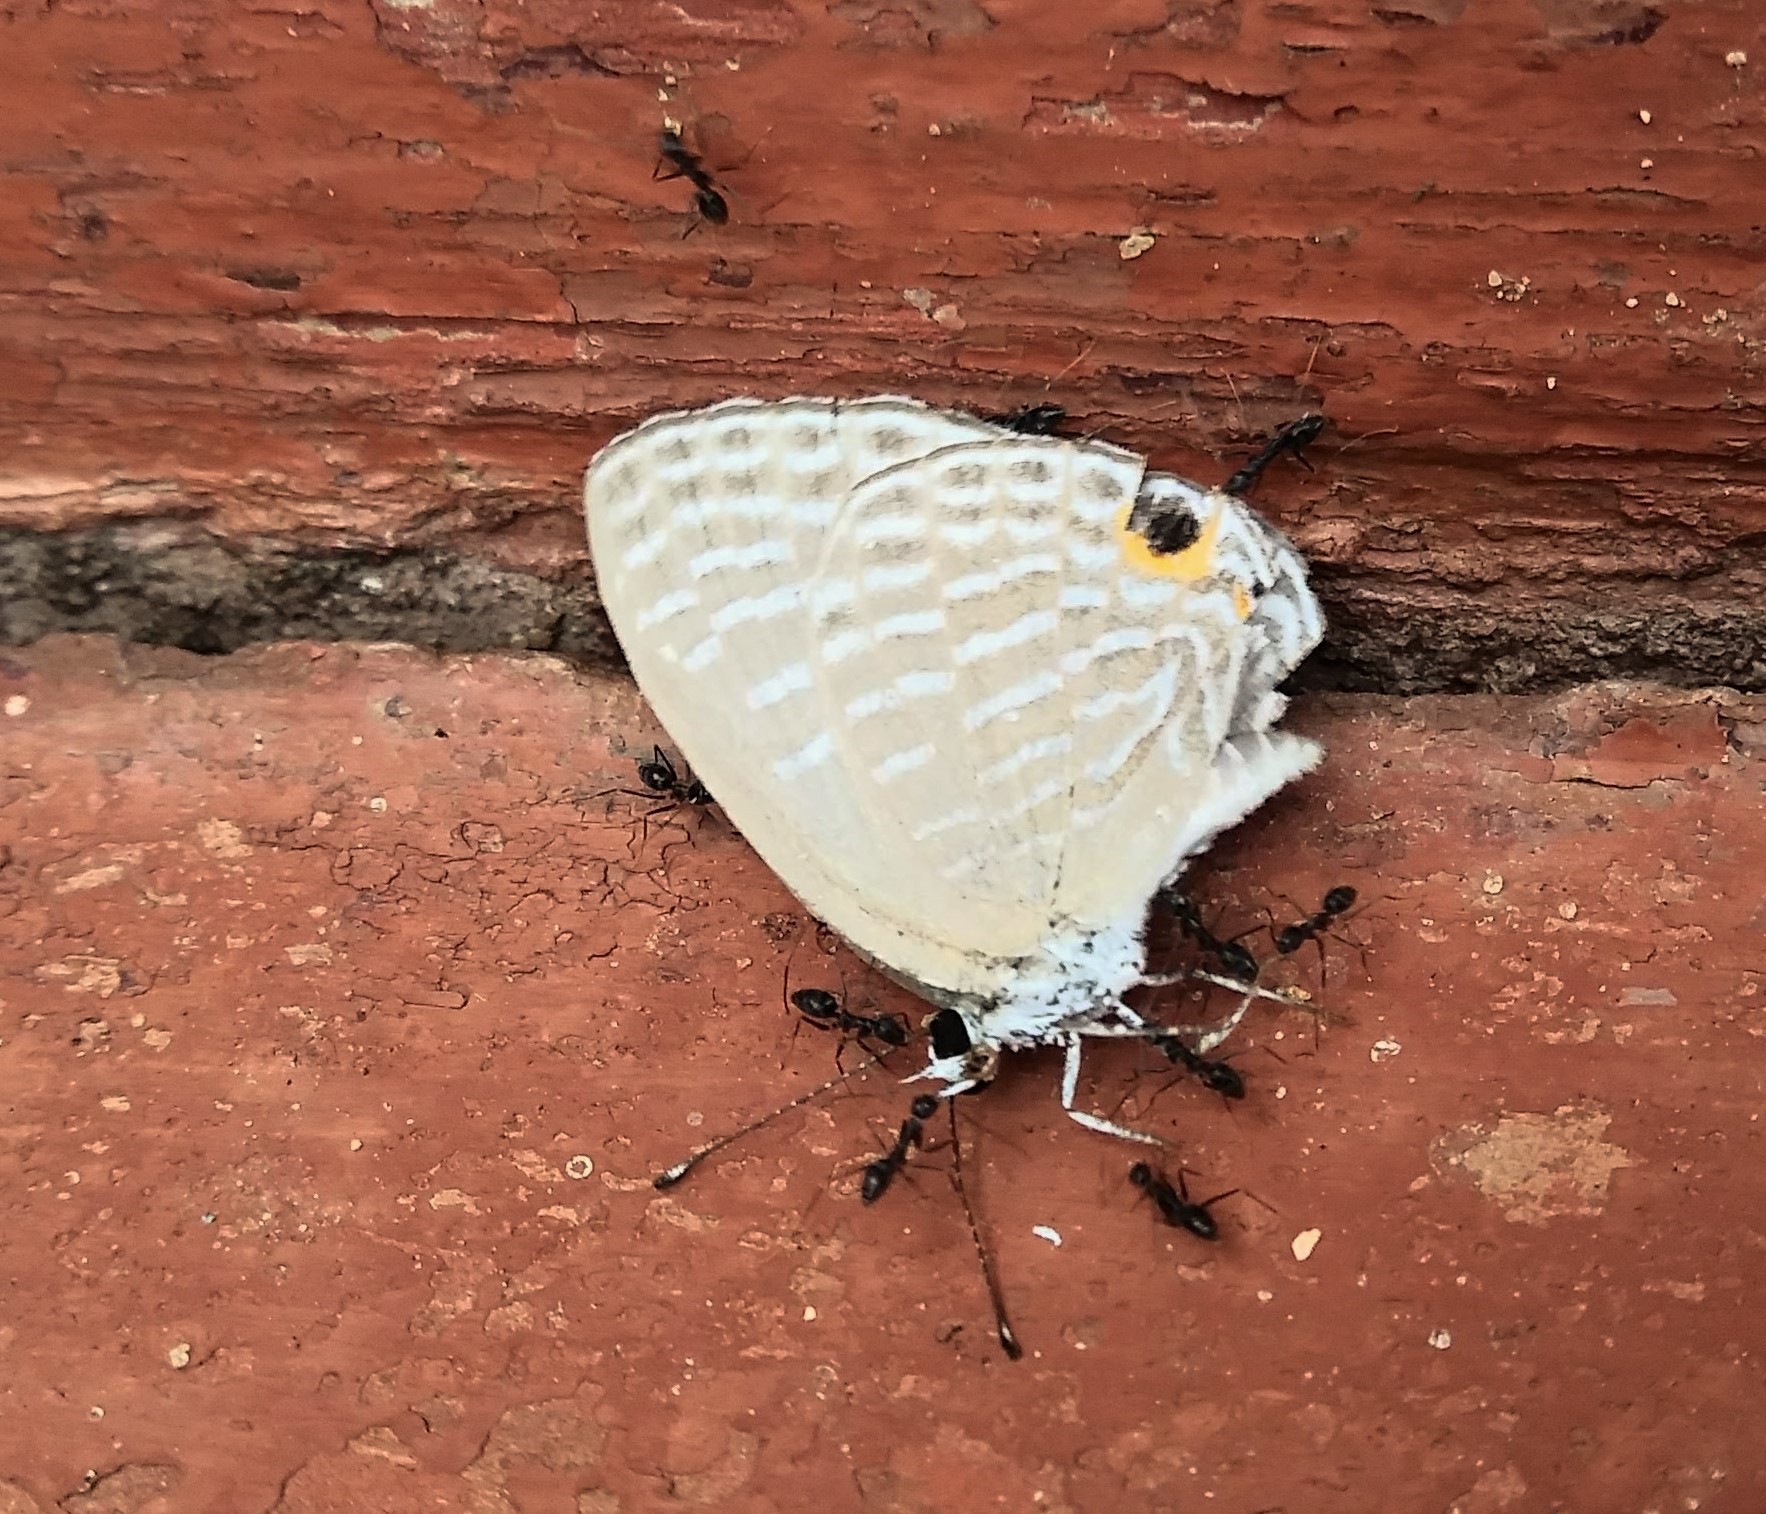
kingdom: Animalia
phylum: Arthropoda
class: Insecta
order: Lepidoptera
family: Lycaenidae
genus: Jamides
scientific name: Jamides celeno
